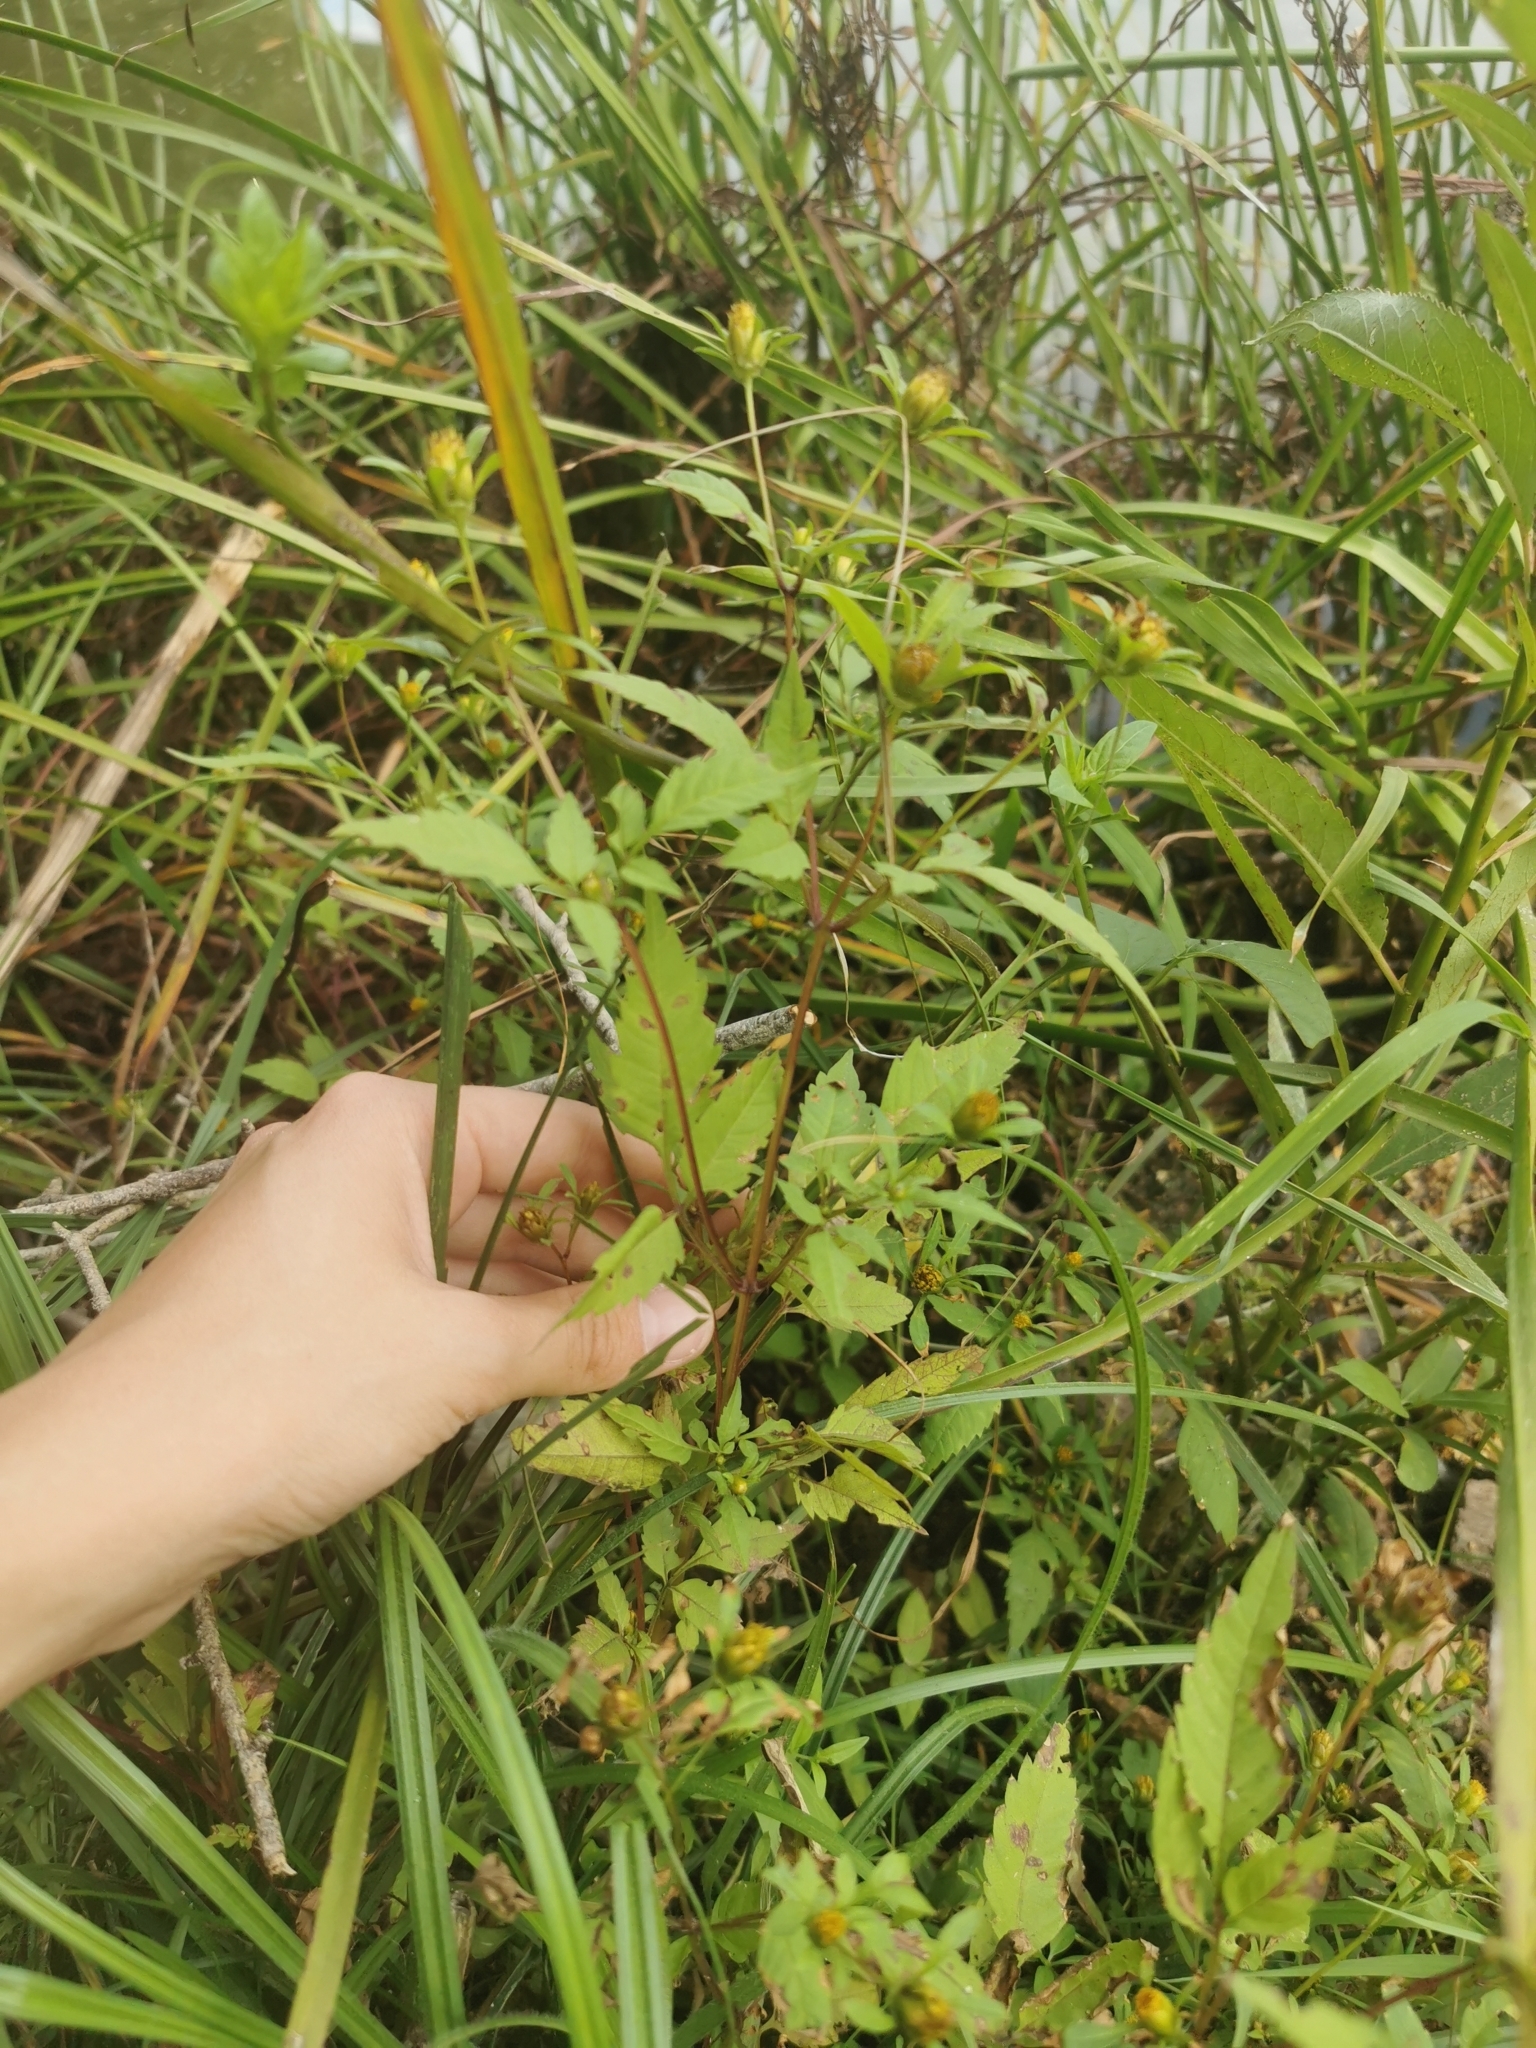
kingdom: Plantae
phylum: Tracheophyta
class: Magnoliopsida
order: Asterales
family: Asteraceae
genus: Bidens
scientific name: Bidens frondosa
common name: Beggarticks
